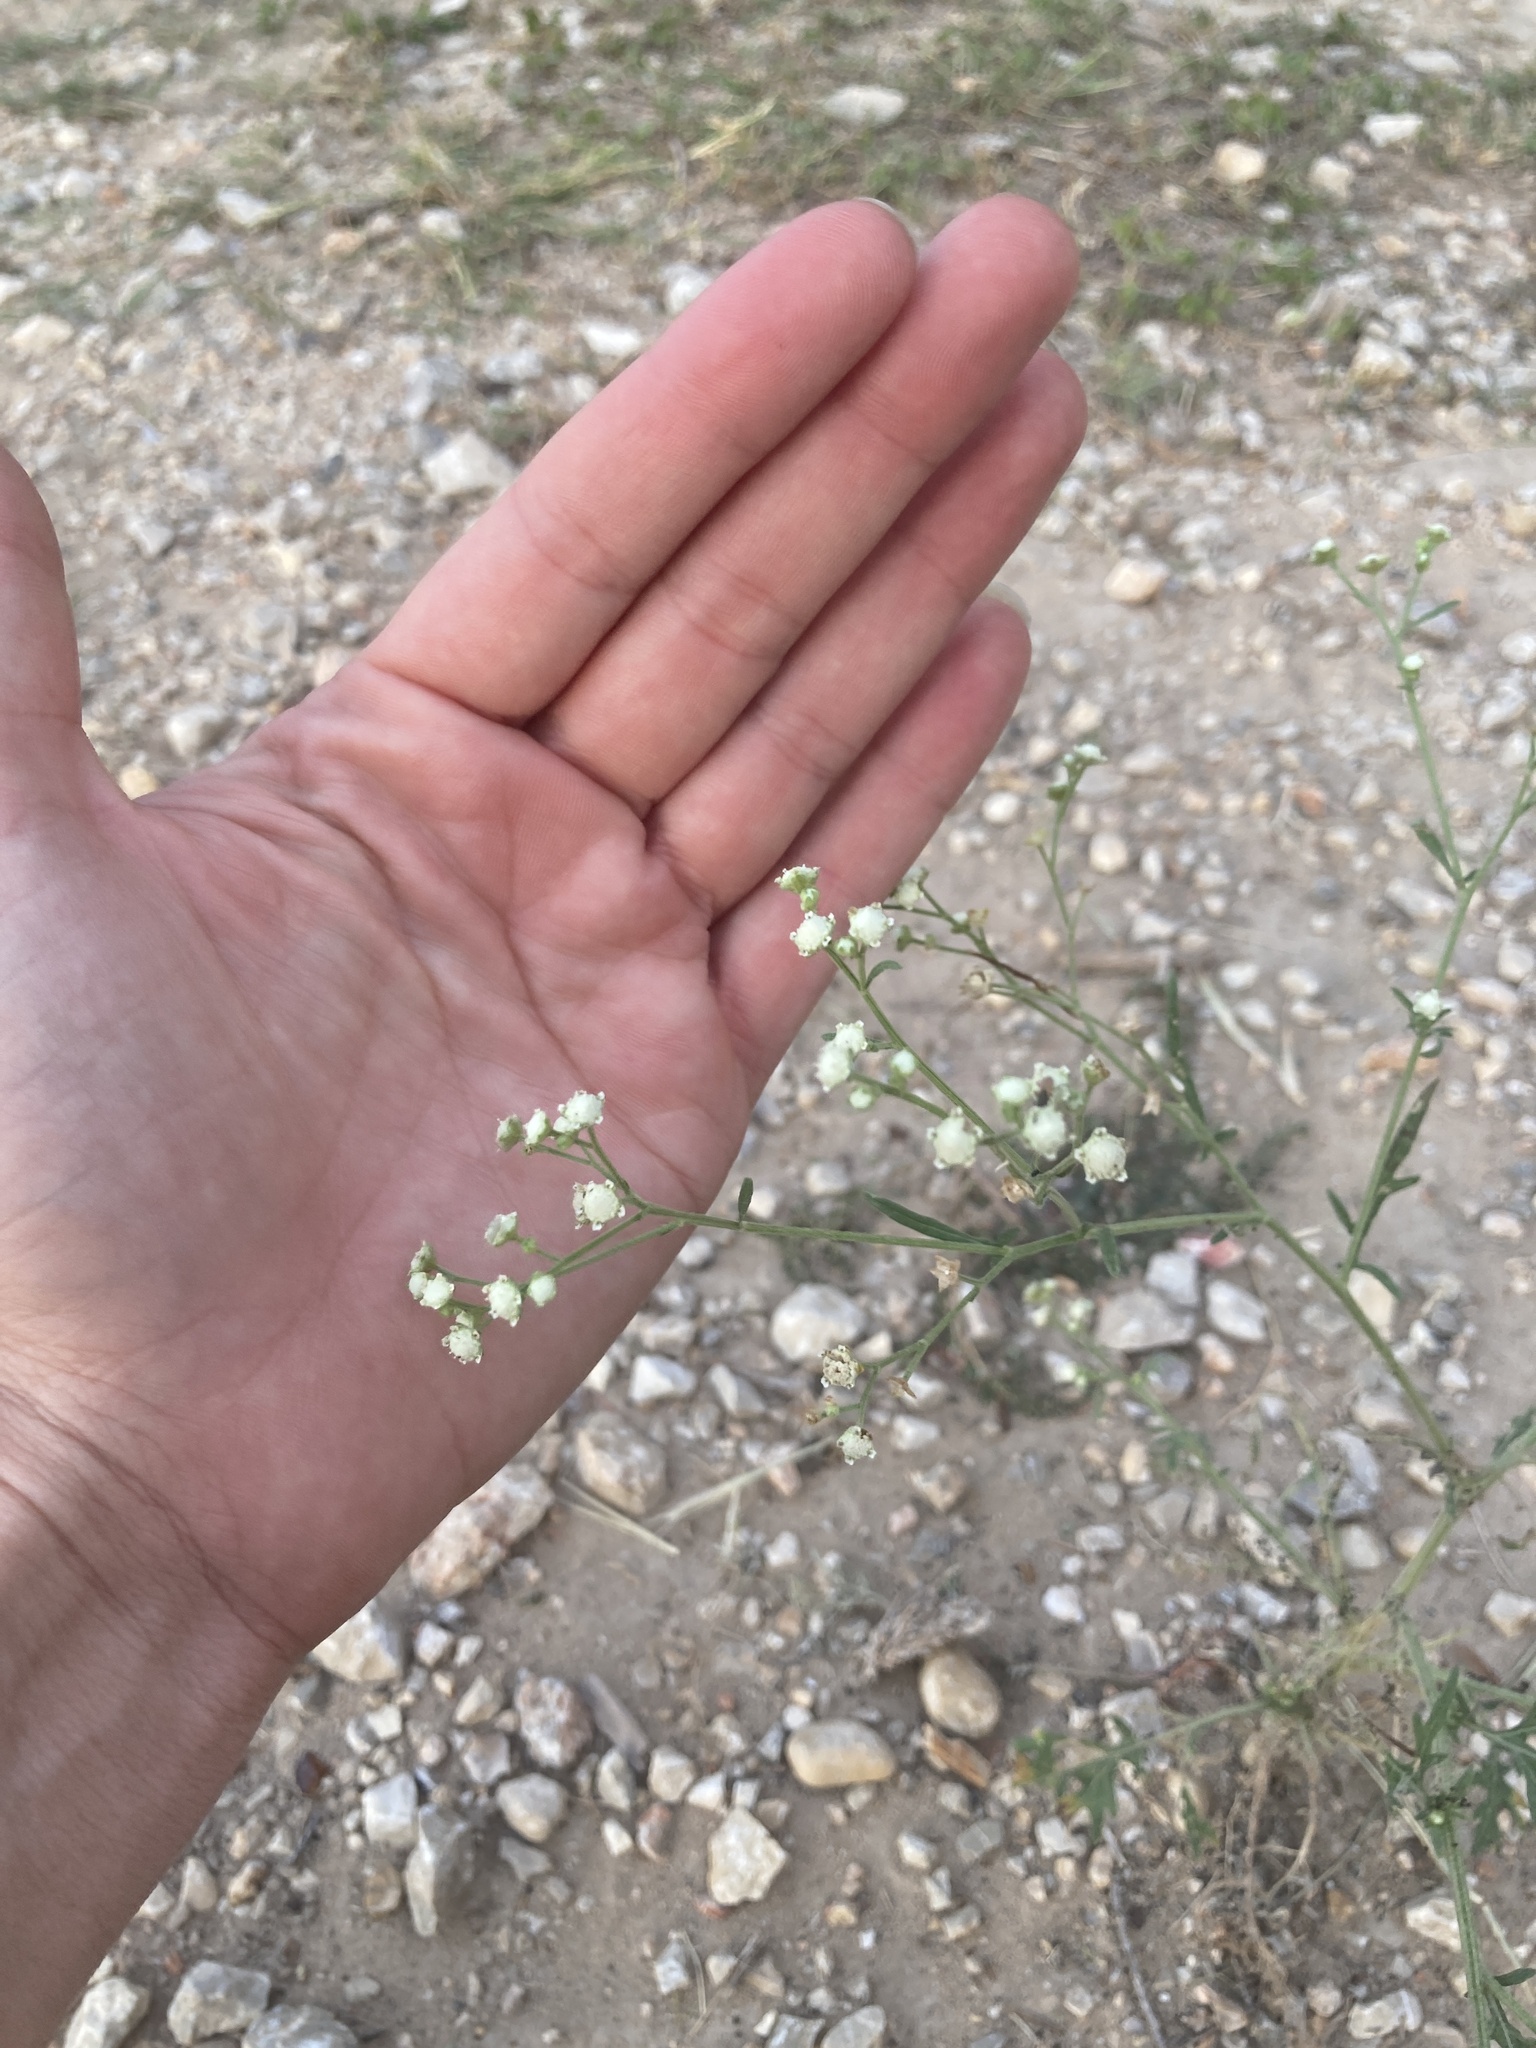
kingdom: Plantae
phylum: Tracheophyta
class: Magnoliopsida
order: Asterales
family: Asteraceae
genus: Parthenium
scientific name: Parthenium hysterophorus
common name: Santa maria feverfew
